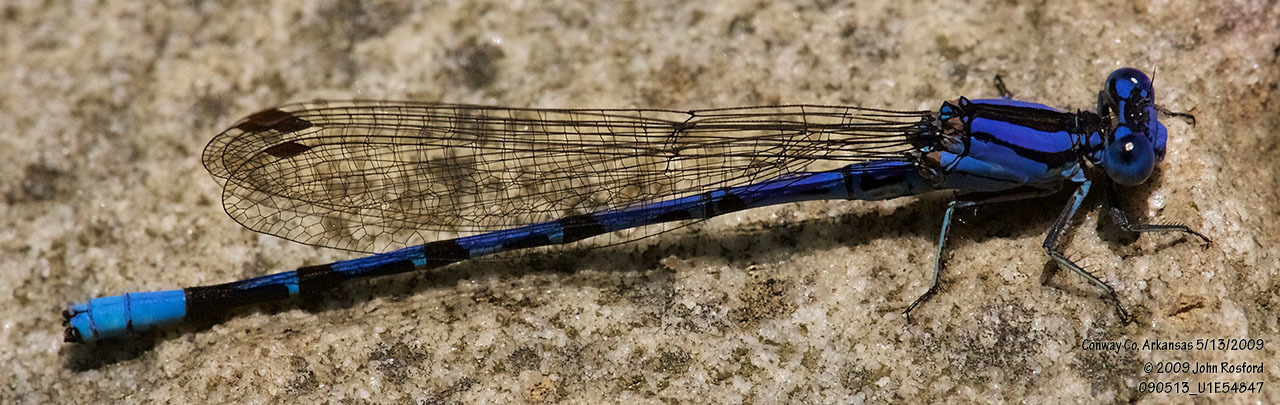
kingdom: Animalia
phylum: Arthropoda
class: Insecta
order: Odonata
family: Coenagrionidae
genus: Argia
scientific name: Argia funebris
